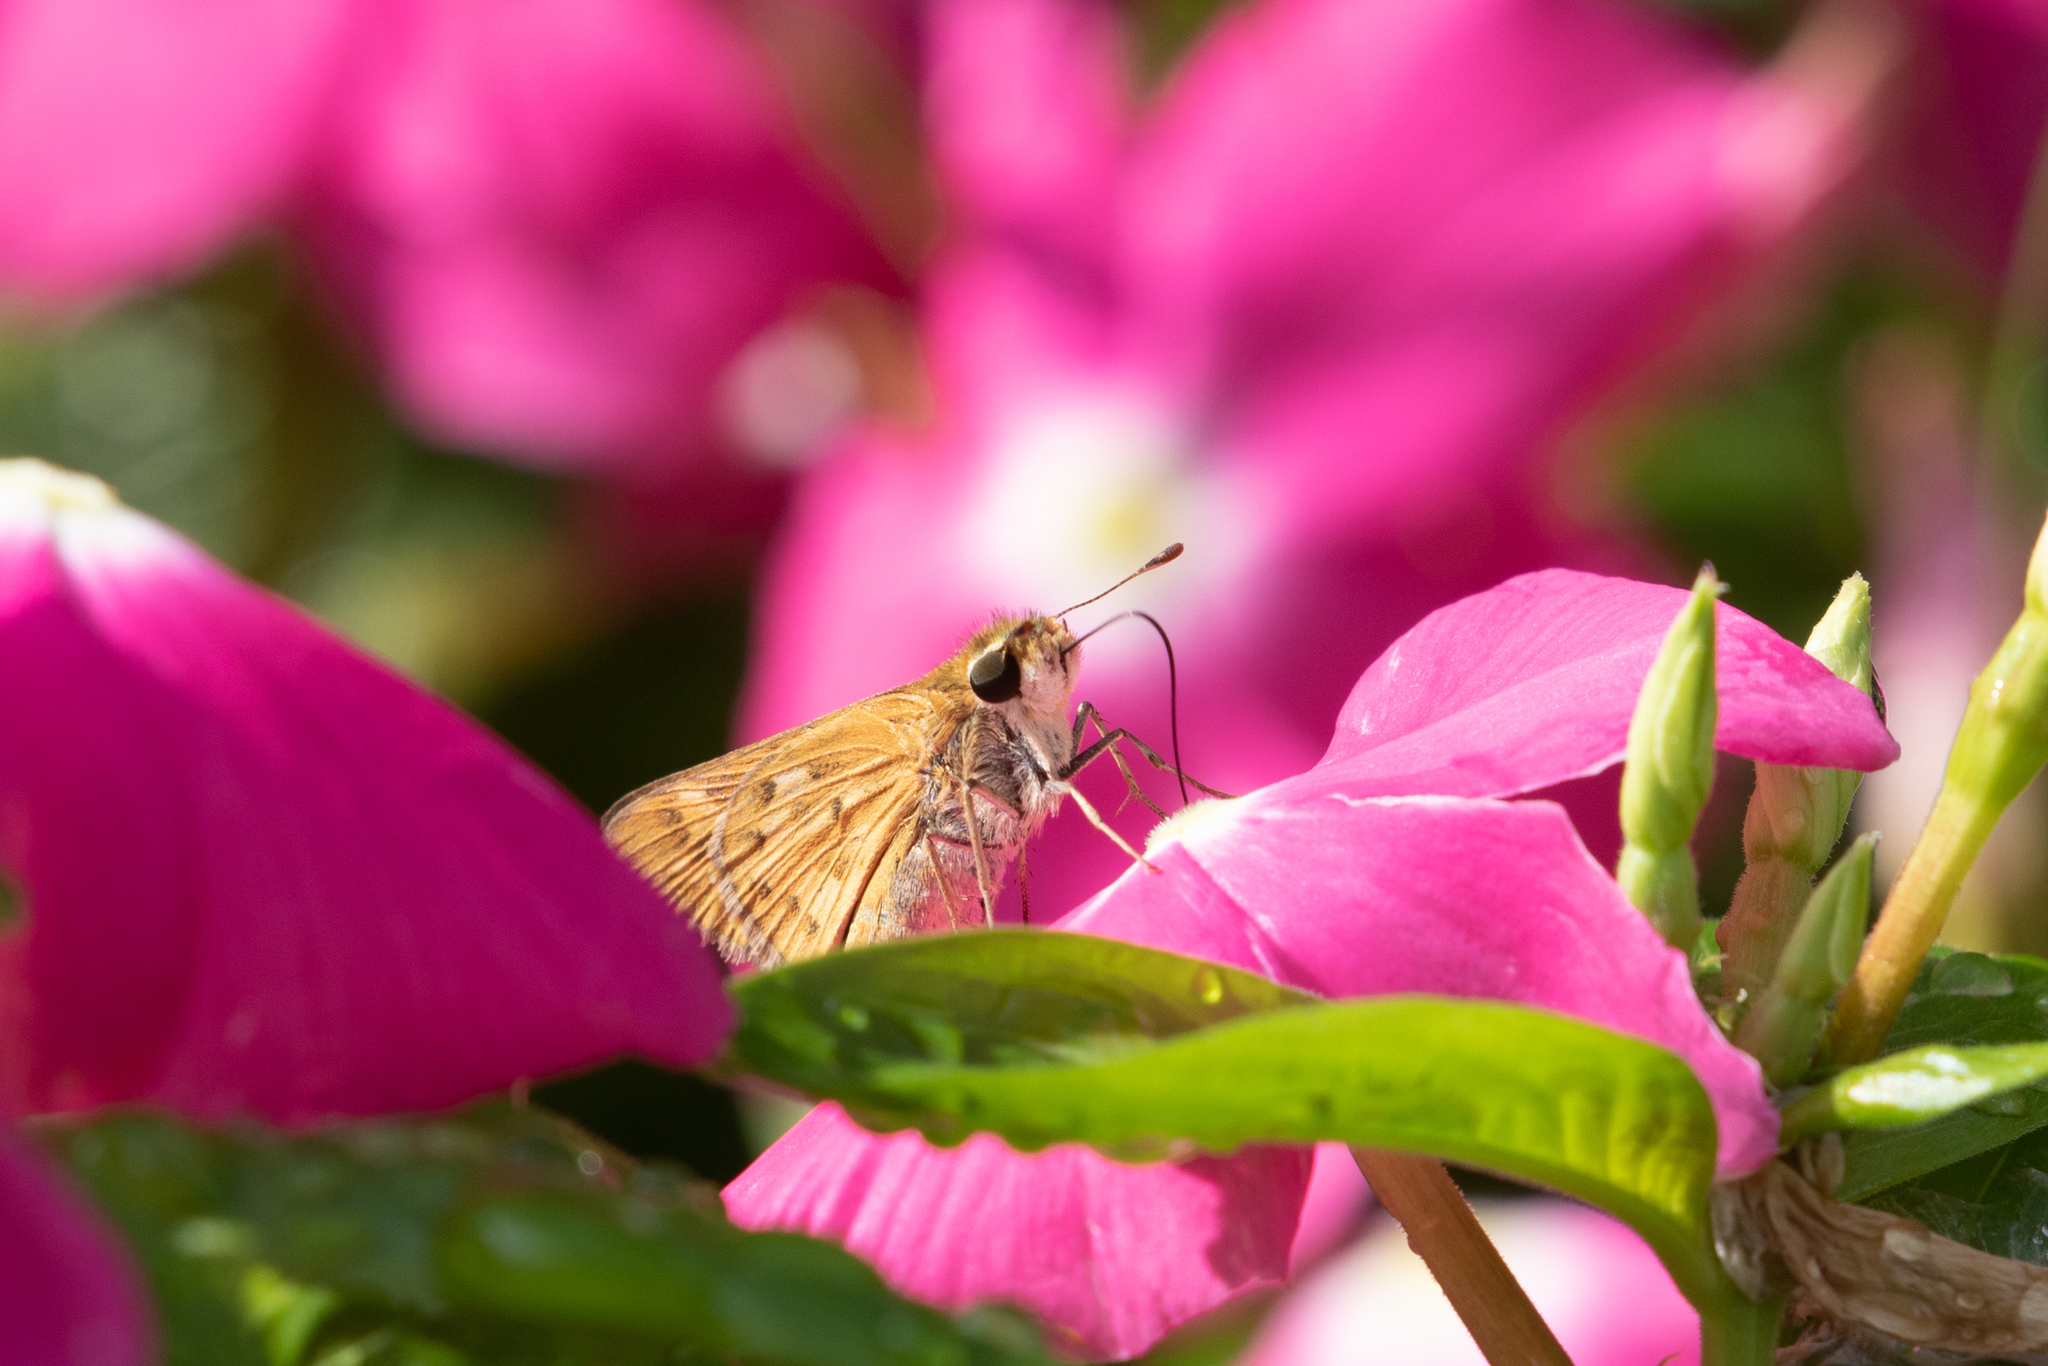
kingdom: Animalia
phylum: Arthropoda
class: Insecta
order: Lepidoptera
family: Hesperiidae
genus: Hylephila
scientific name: Hylephila phyleus
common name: Fiery skipper
